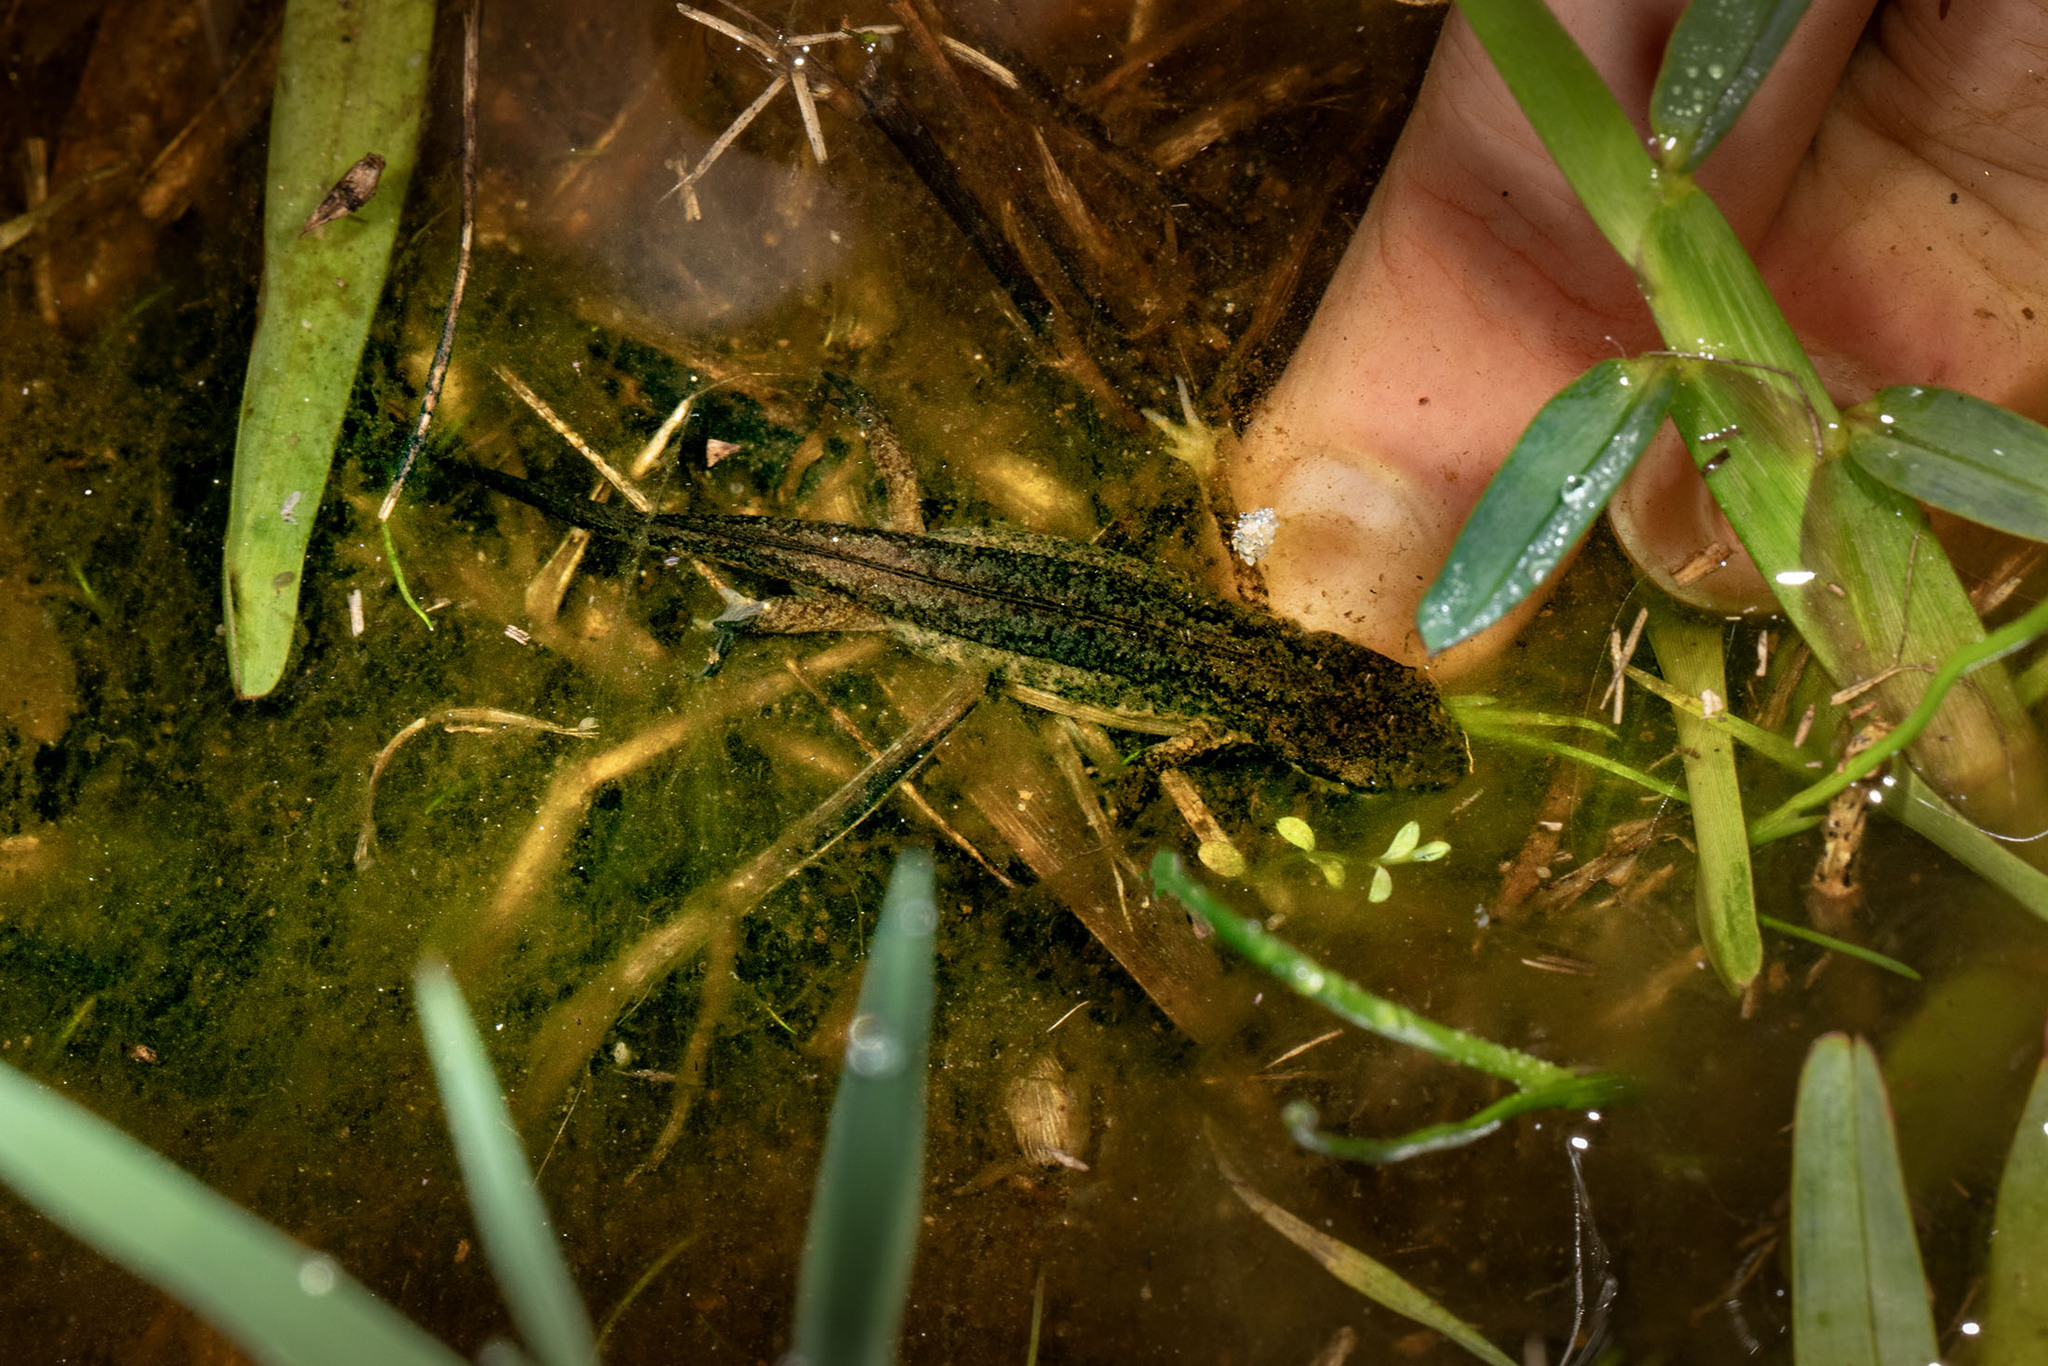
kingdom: Animalia
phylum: Chordata
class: Amphibia
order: Caudata
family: Salamandridae
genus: Lissotriton
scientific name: Lissotriton helveticus
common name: Palmate newt
